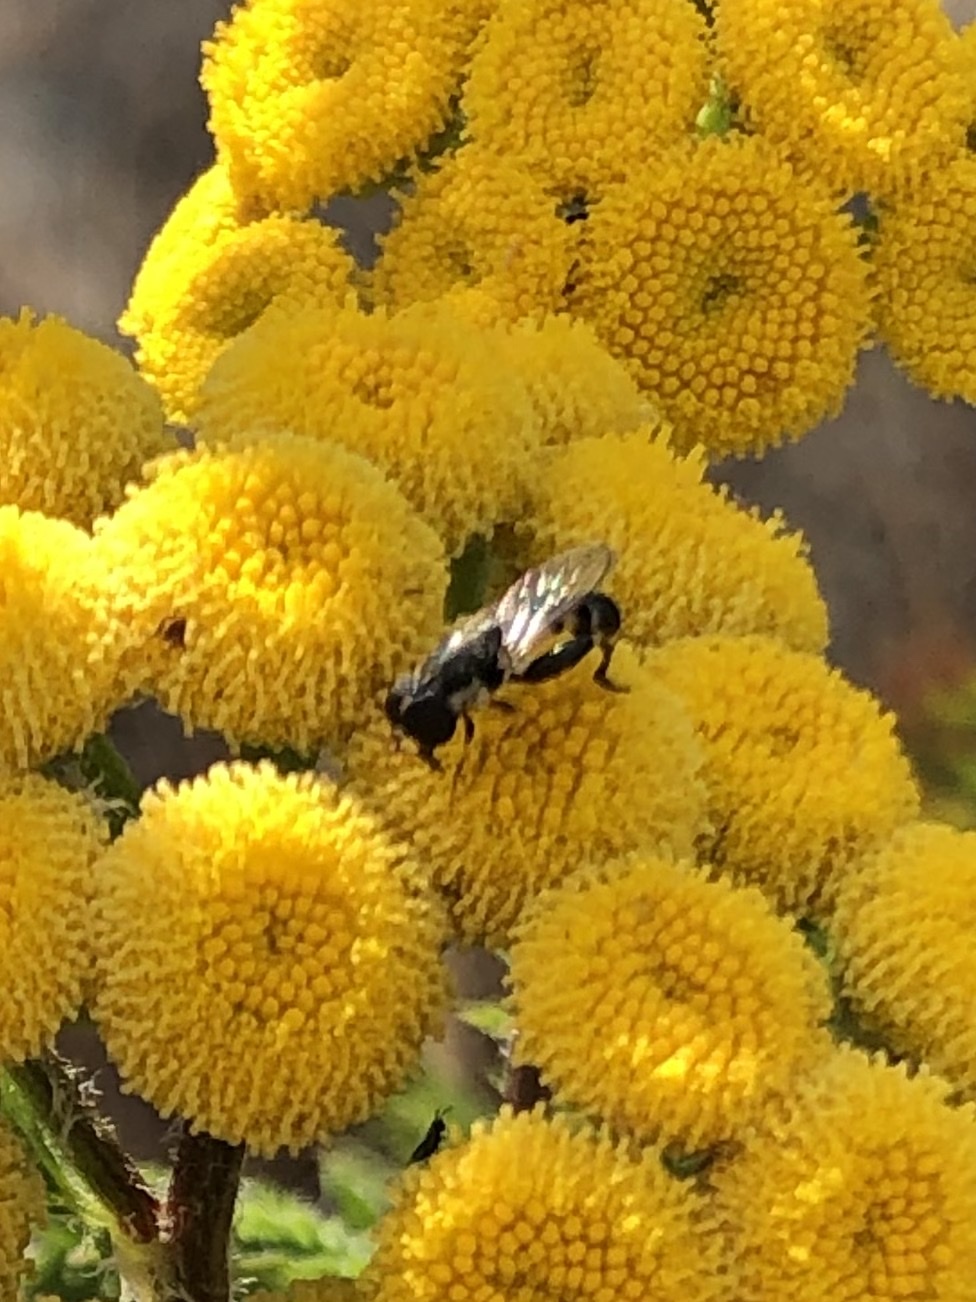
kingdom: Animalia
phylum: Arthropoda
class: Insecta
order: Diptera
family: Syrphidae
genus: Syritta
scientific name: Syritta pipiens
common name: Hover fly
